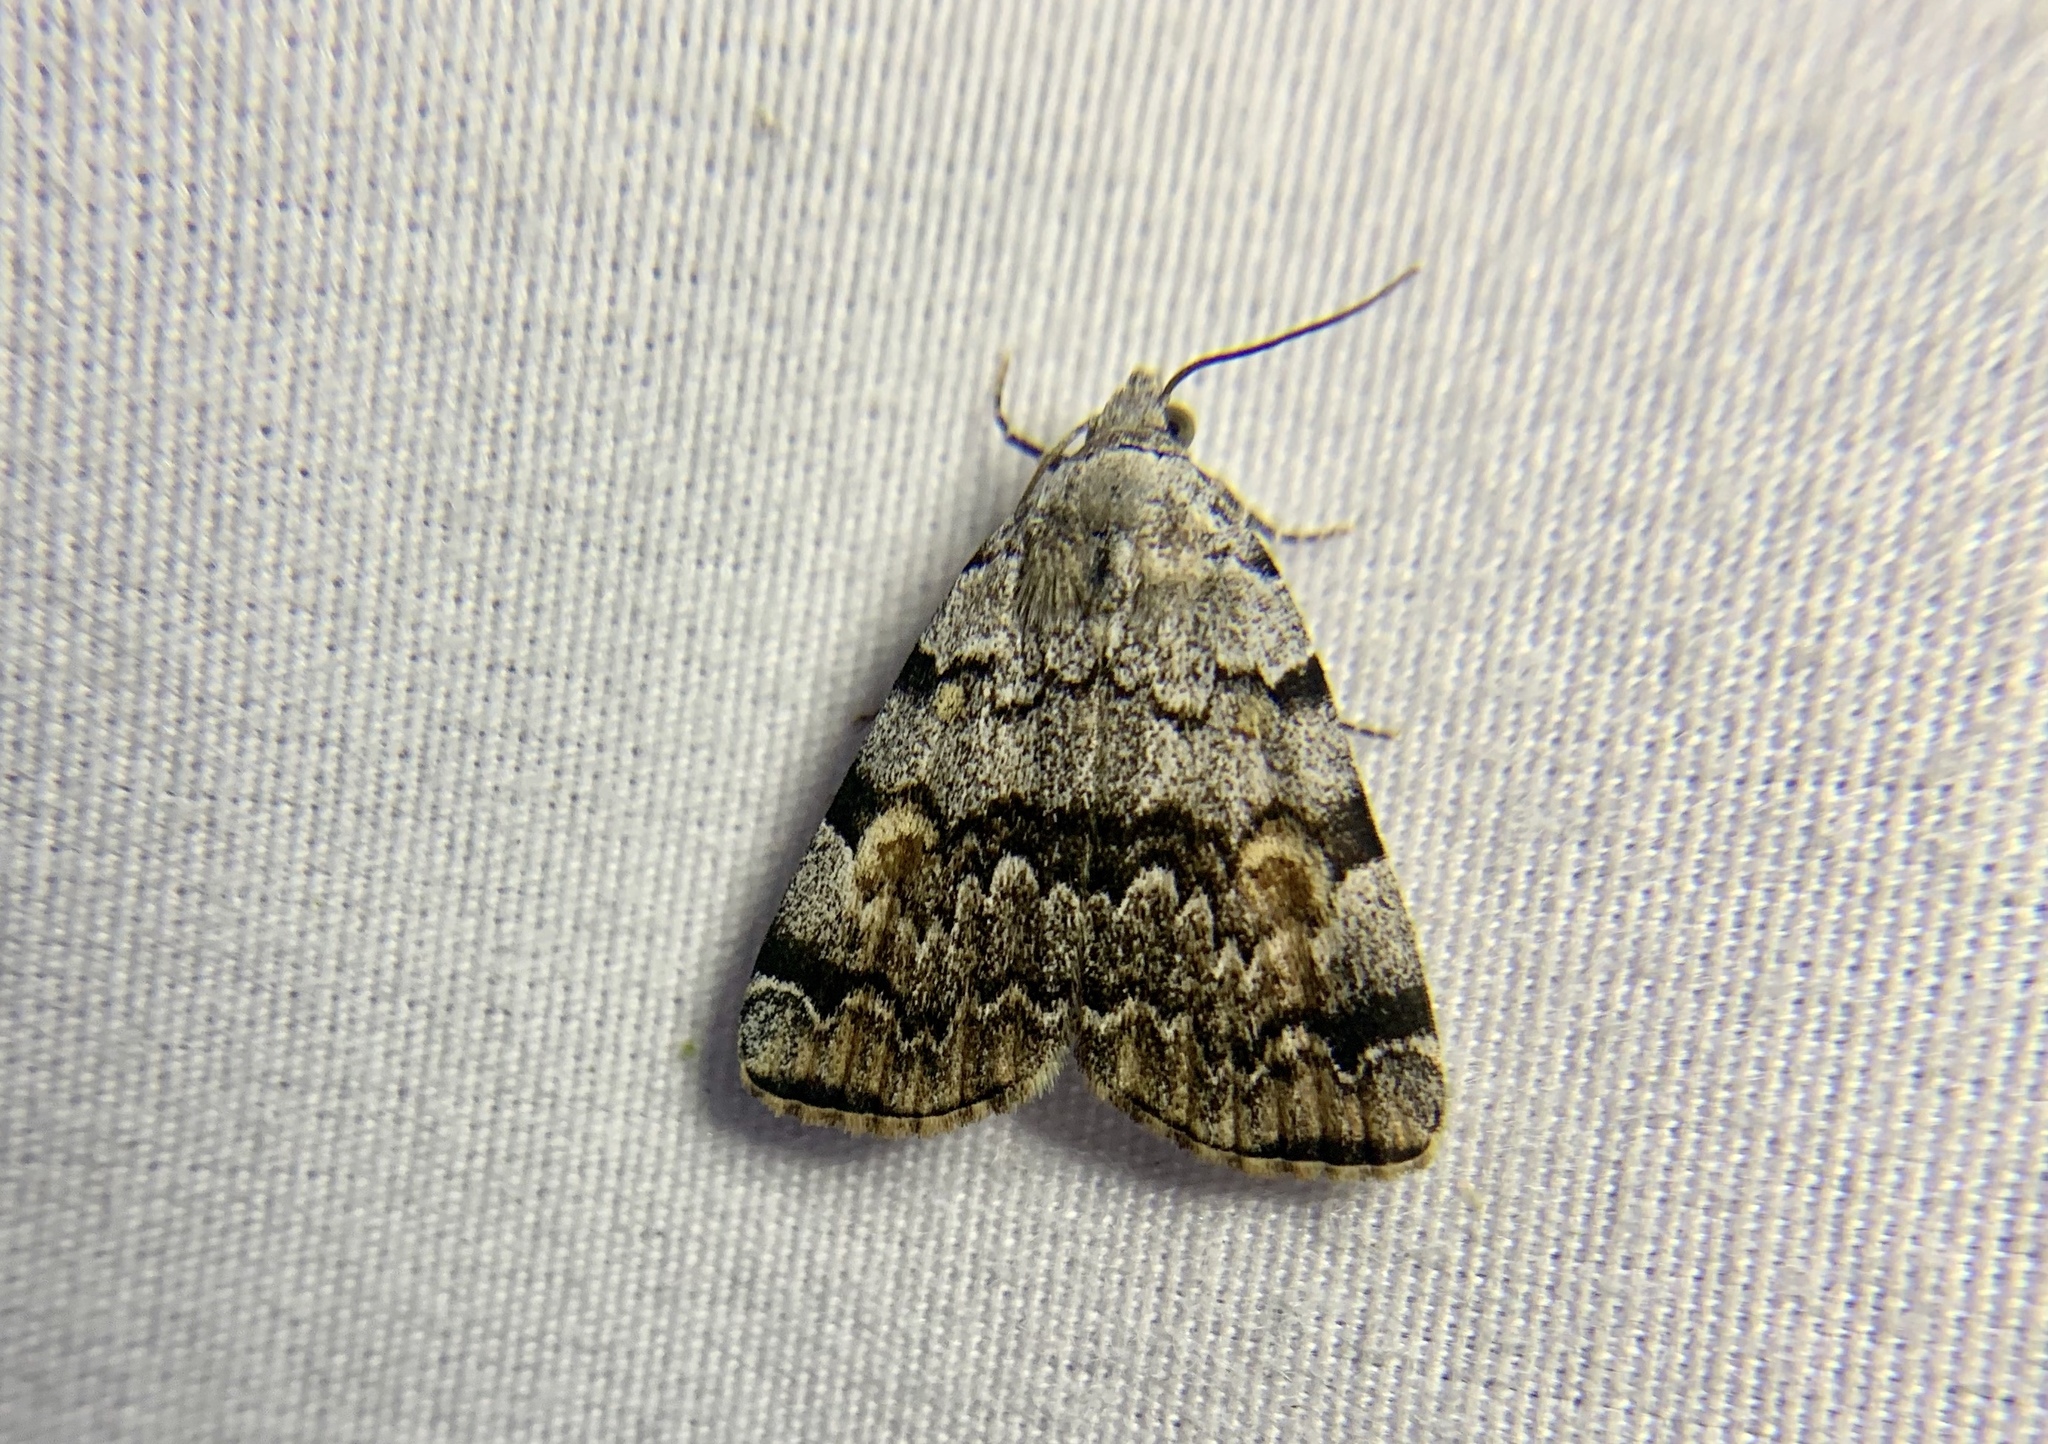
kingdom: Animalia
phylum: Arthropoda
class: Insecta
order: Lepidoptera
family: Erebidae
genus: Idia
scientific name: Idia americalis
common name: American idia moth
